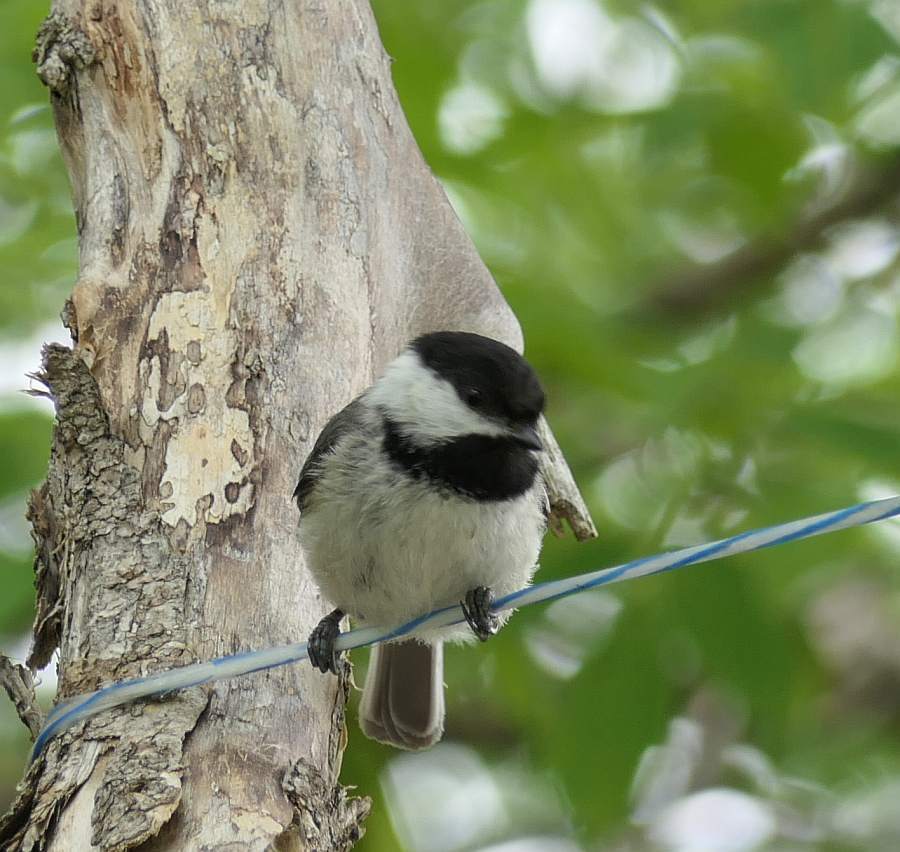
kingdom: Animalia
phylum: Chordata
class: Aves
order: Passeriformes
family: Paridae
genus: Poecile
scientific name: Poecile atricapillus
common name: Black-capped chickadee
